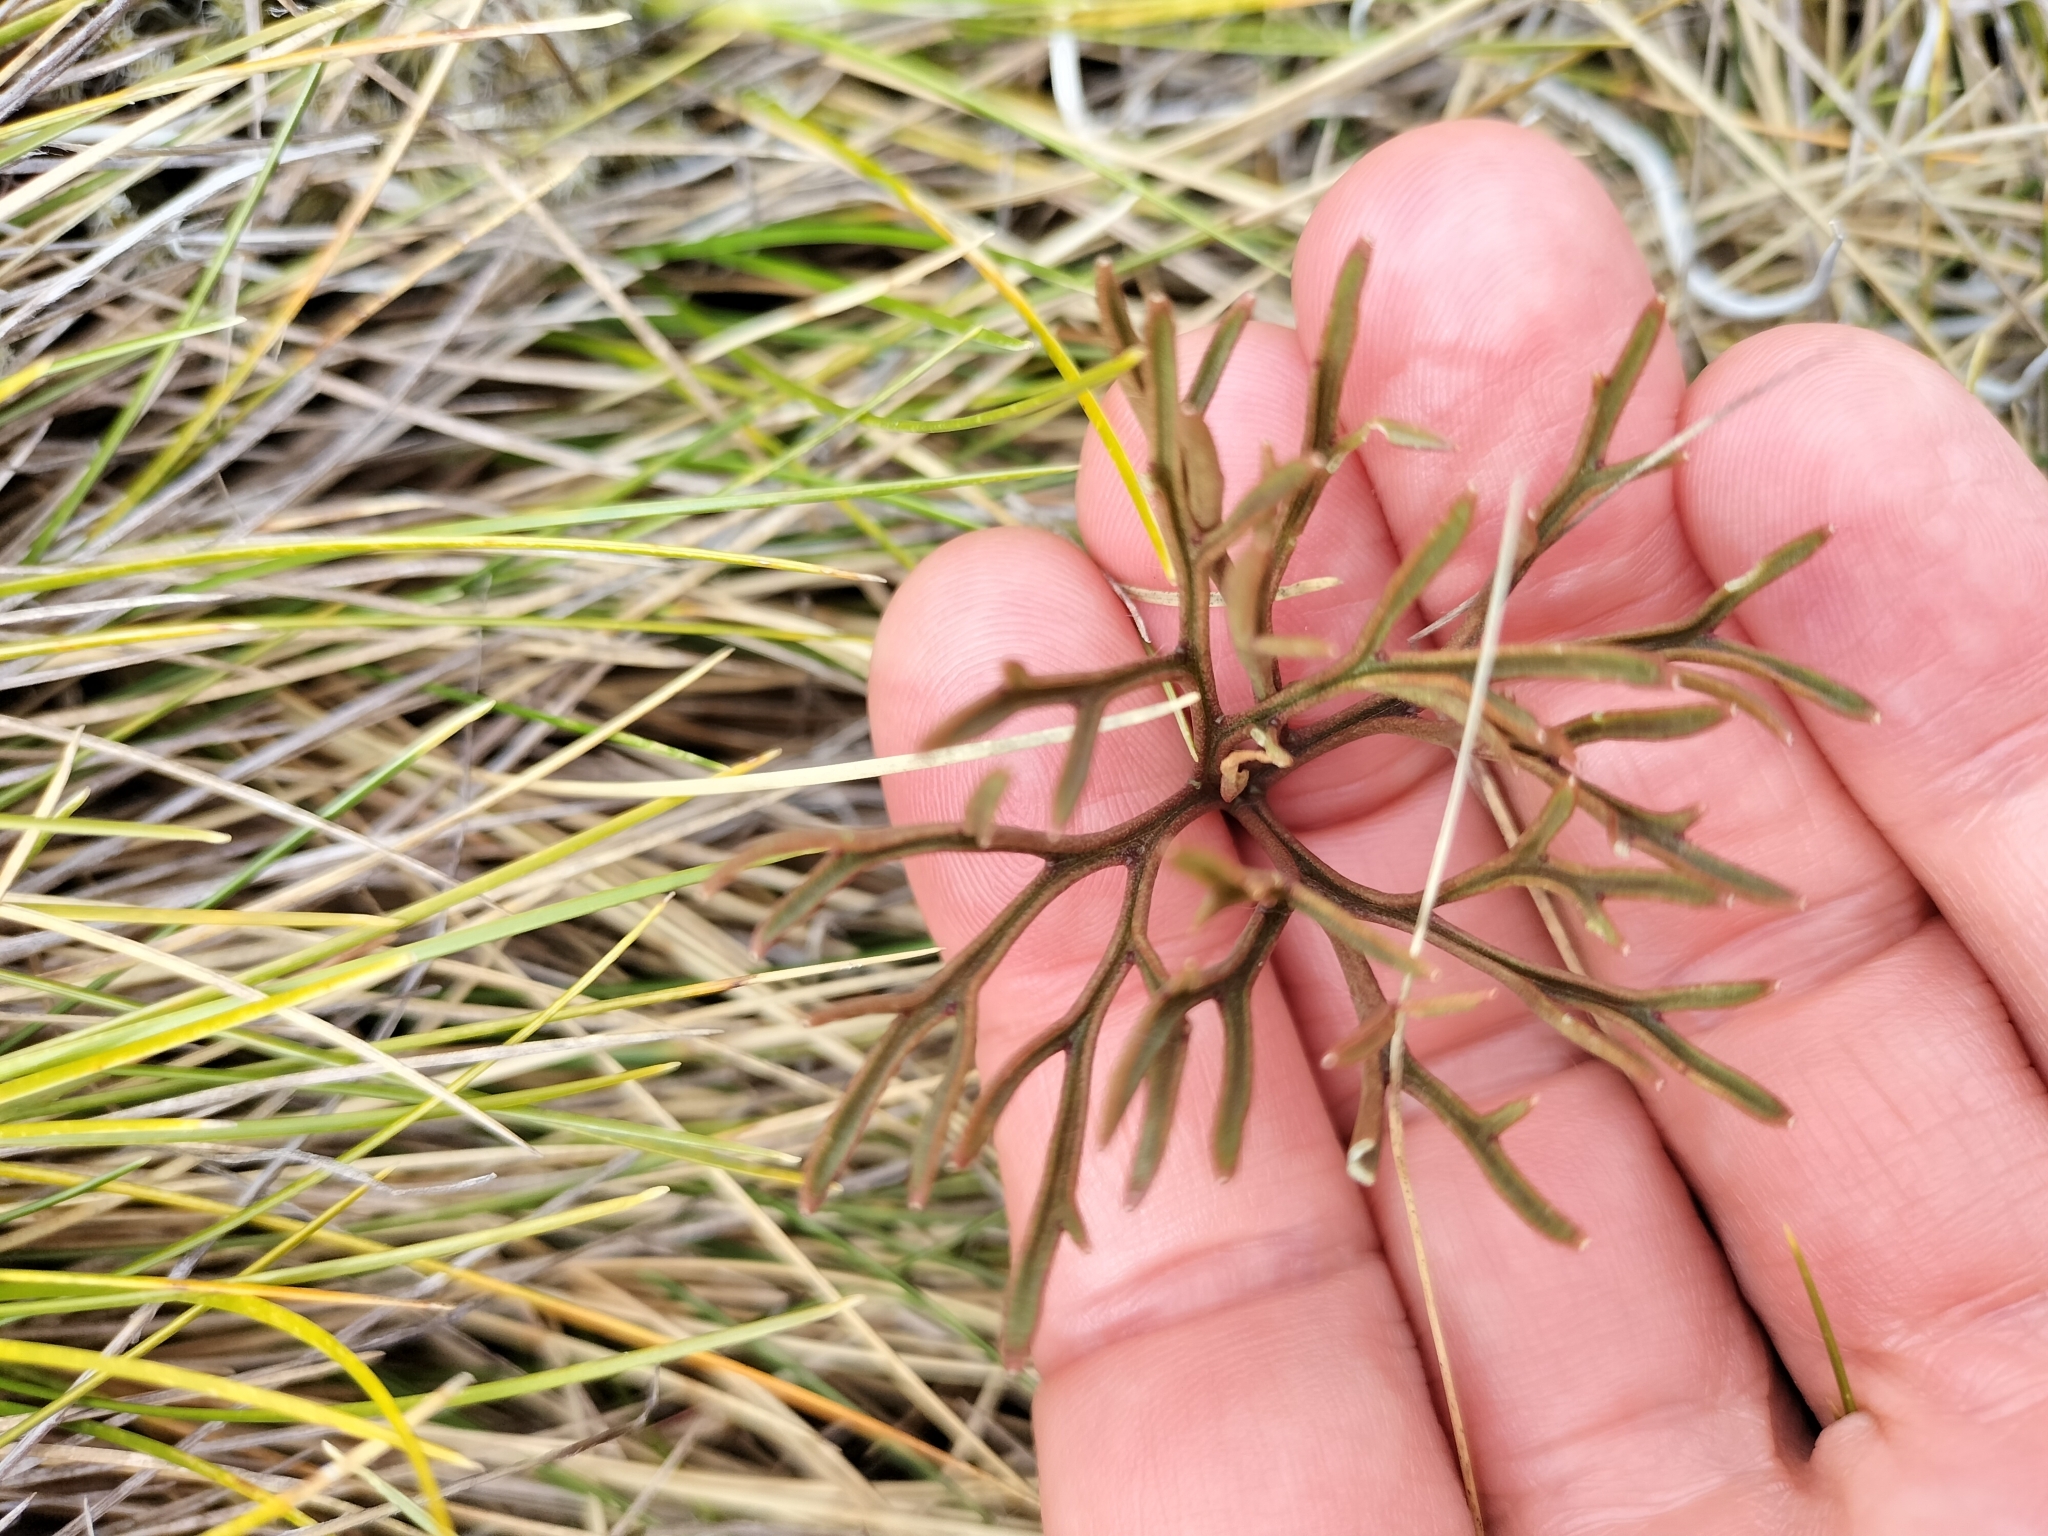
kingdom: Plantae
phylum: Tracheophyta
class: Magnoliopsida
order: Ranunculales
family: Ranunculaceae
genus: Ranunculus
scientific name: Ranunculus verticillatus
